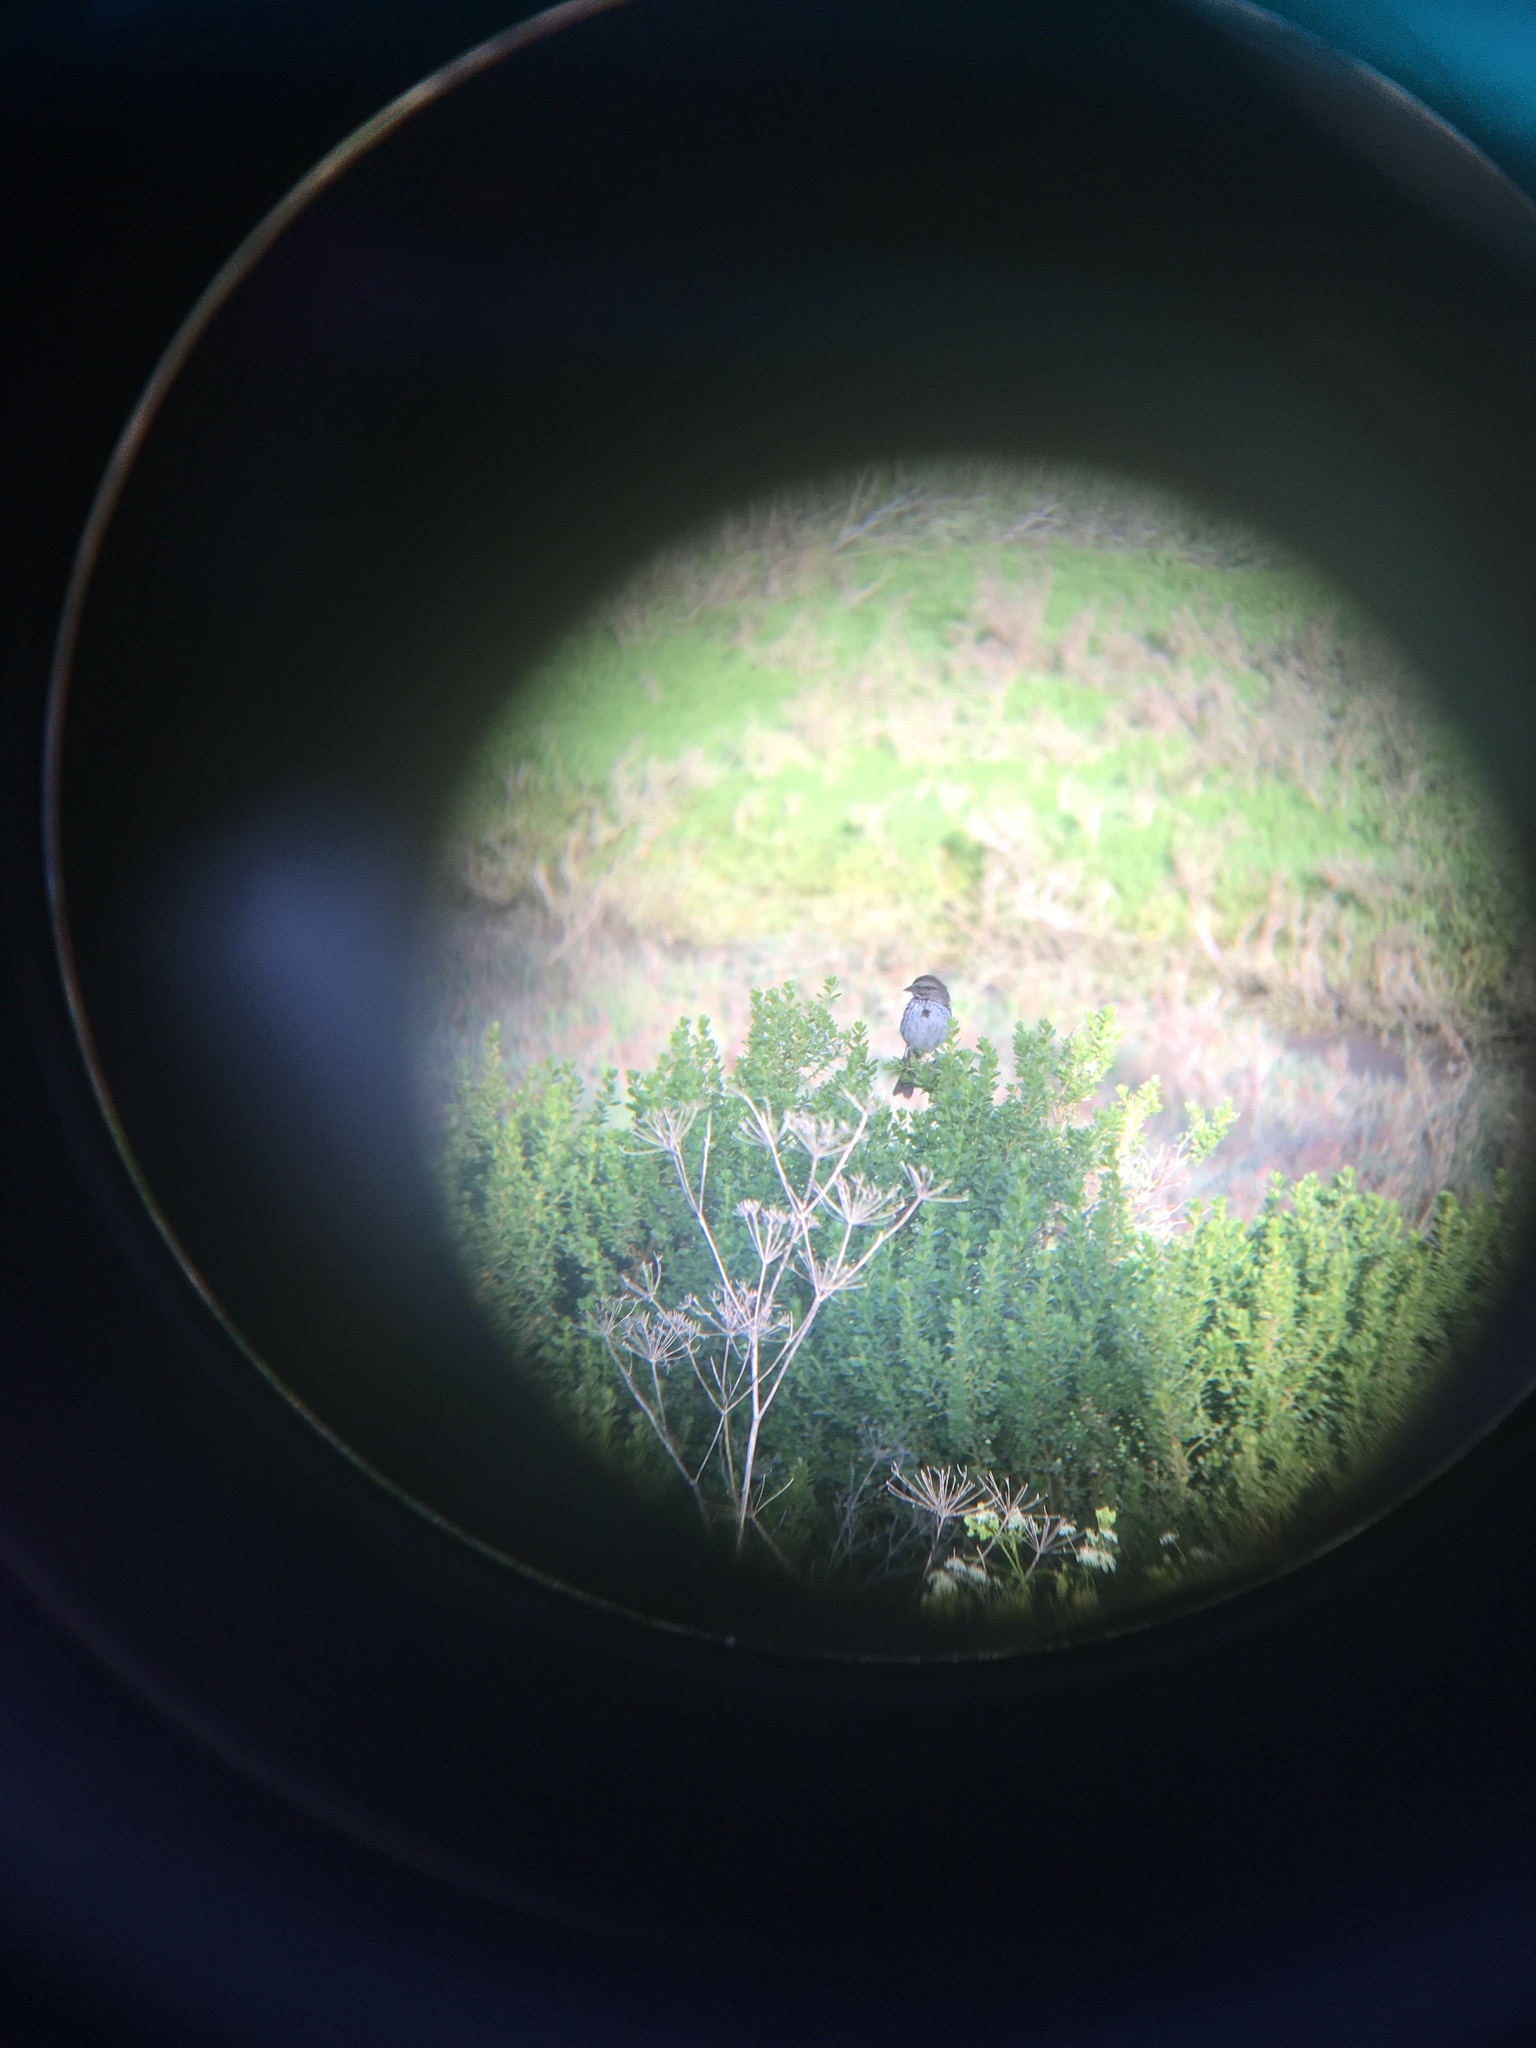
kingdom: Animalia
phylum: Chordata
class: Aves
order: Passeriformes
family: Passerellidae
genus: Melospiza
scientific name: Melospiza melodia
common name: Song sparrow
